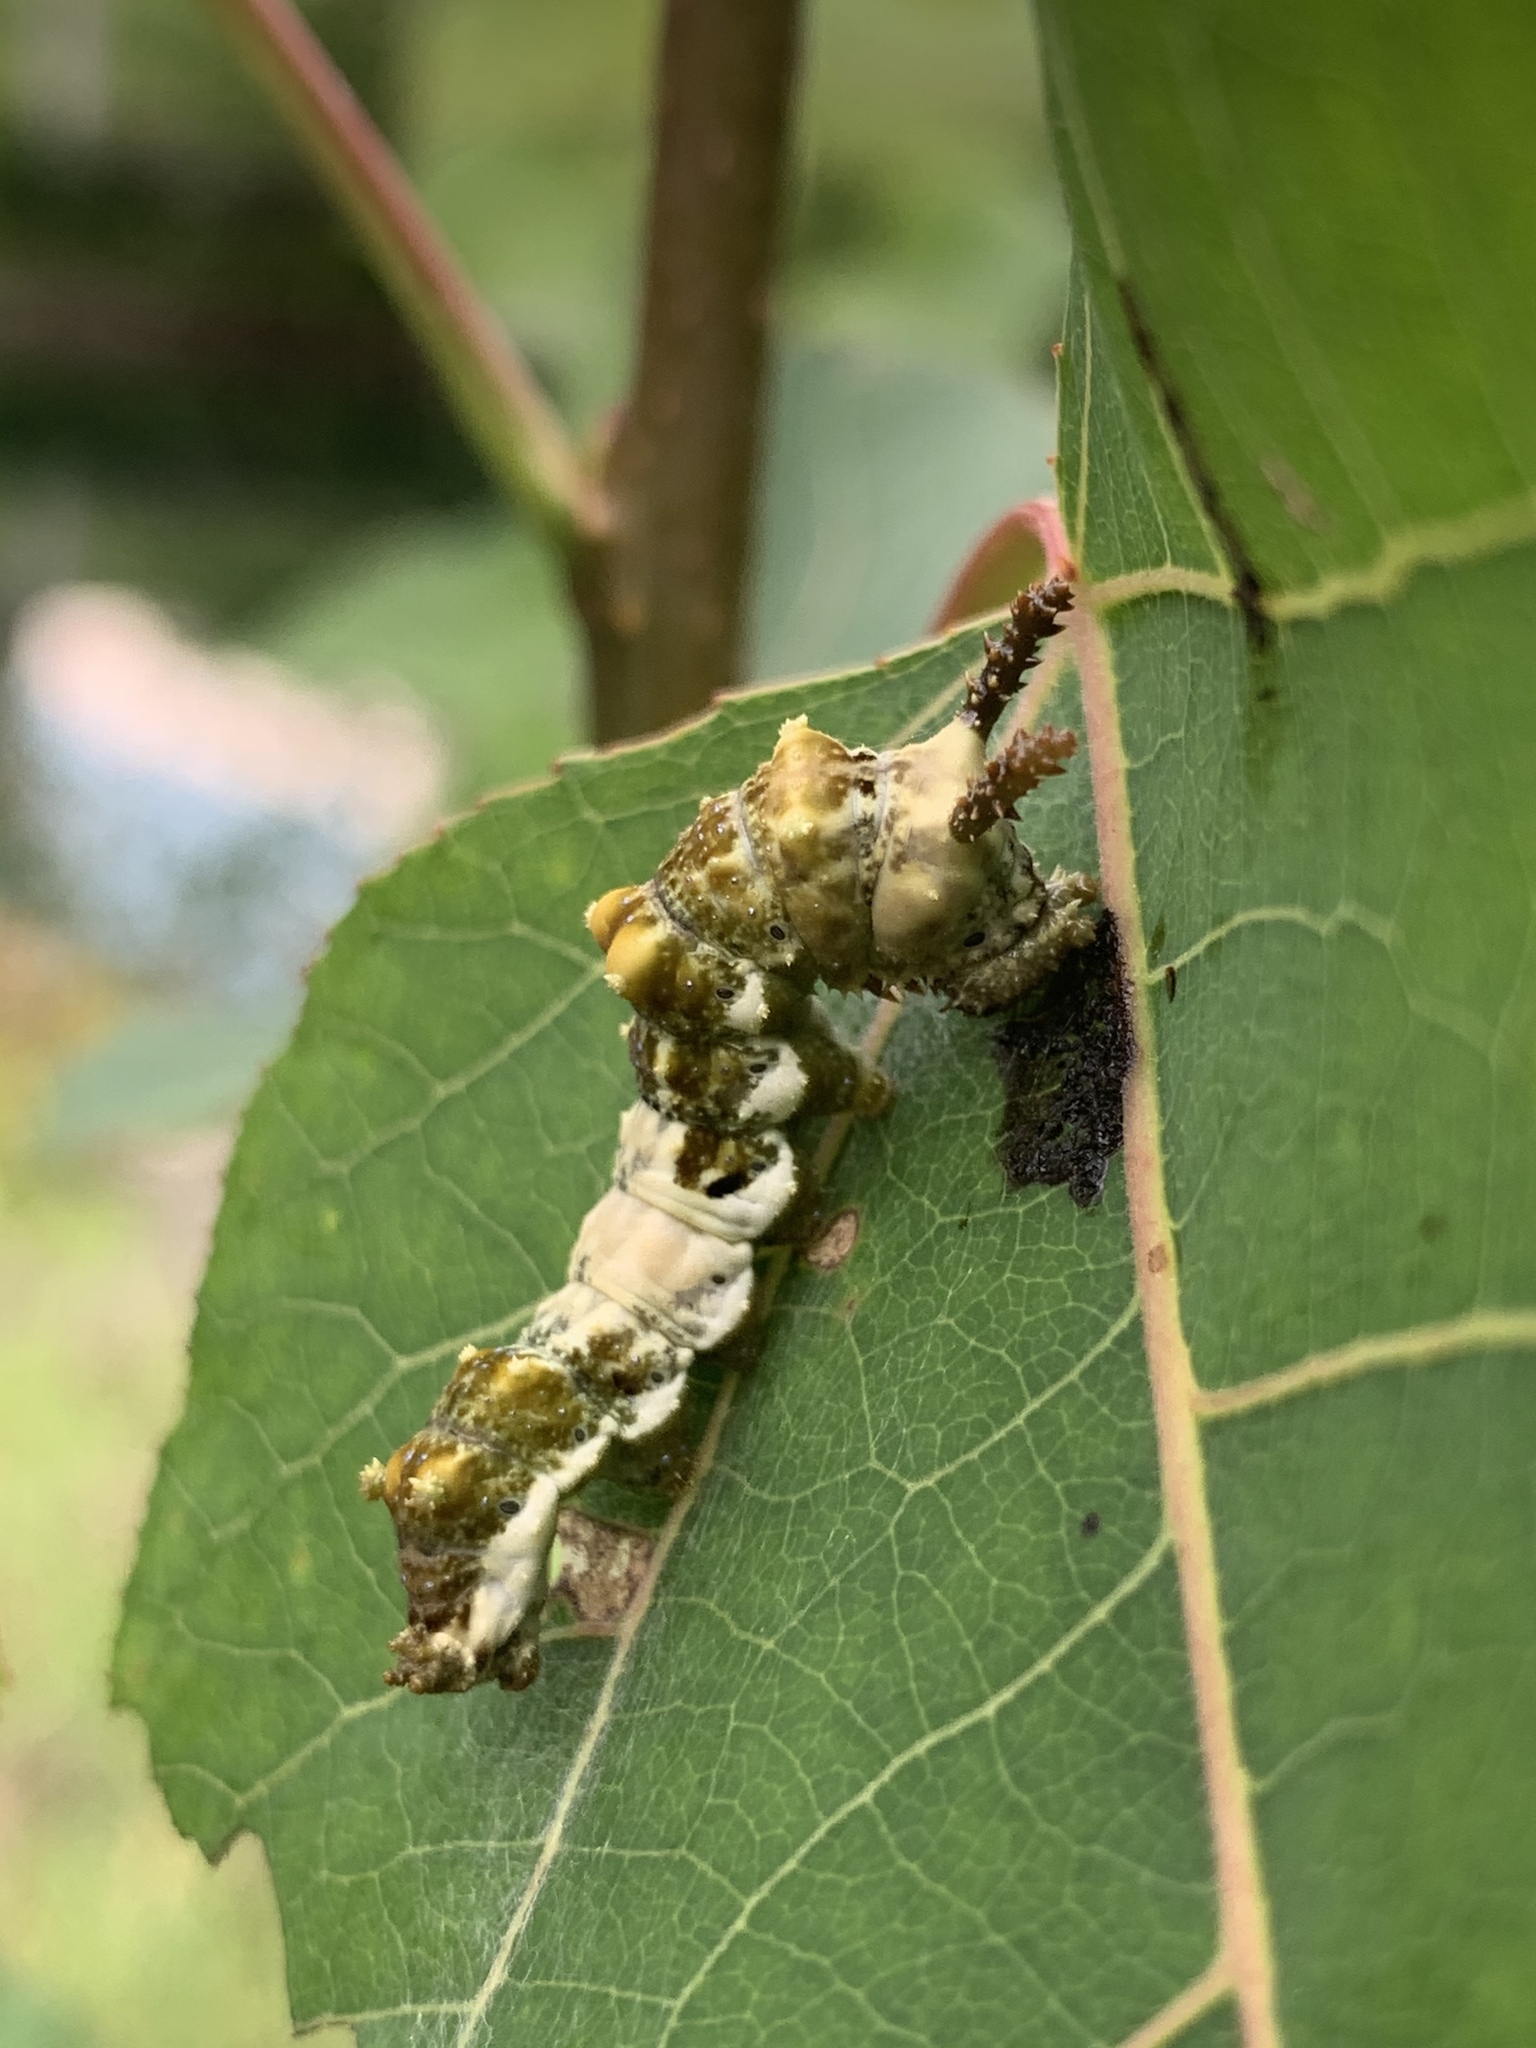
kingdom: Animalia
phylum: Arthropoda
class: Insecta
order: Lepidoptera
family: Nymphalidae
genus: Limenitis
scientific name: Limenitis archippus
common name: Viceroy
